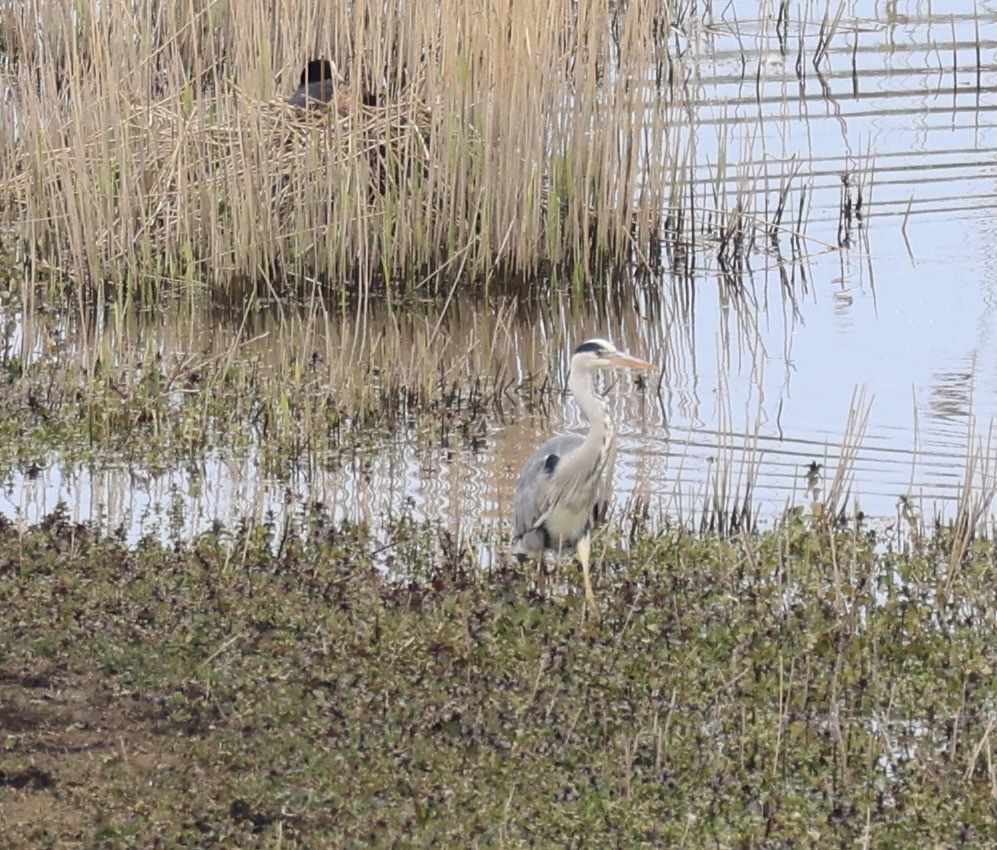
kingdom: Animalia
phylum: Chordata
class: Aves
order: Pelecaniformes
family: Ardeidae
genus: Ardea
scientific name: Ardea cinerea
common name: Grey heron
